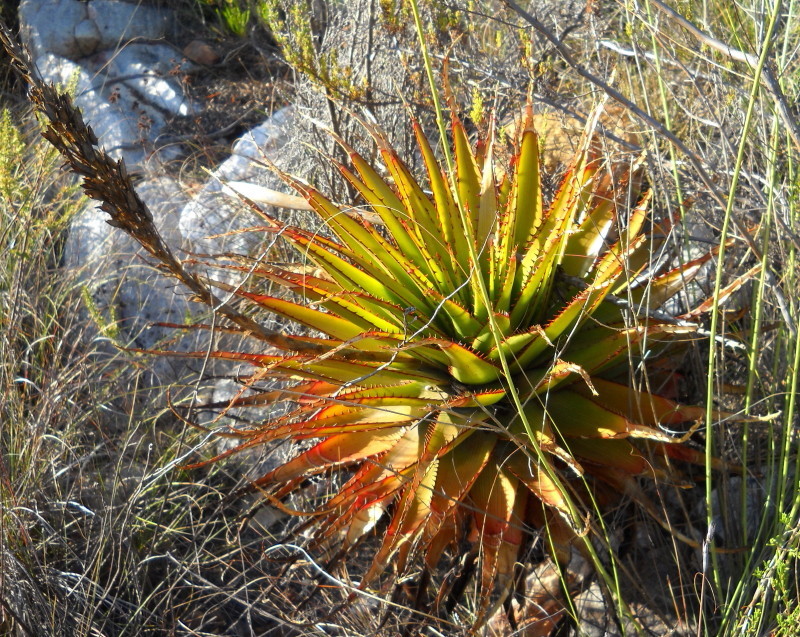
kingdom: Plantae
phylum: Tracheophyta
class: Liliopsida
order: Asparagales
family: Asphodelaceae
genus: Aloe
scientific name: Aloe lineata
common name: Lined red-spined aloe
